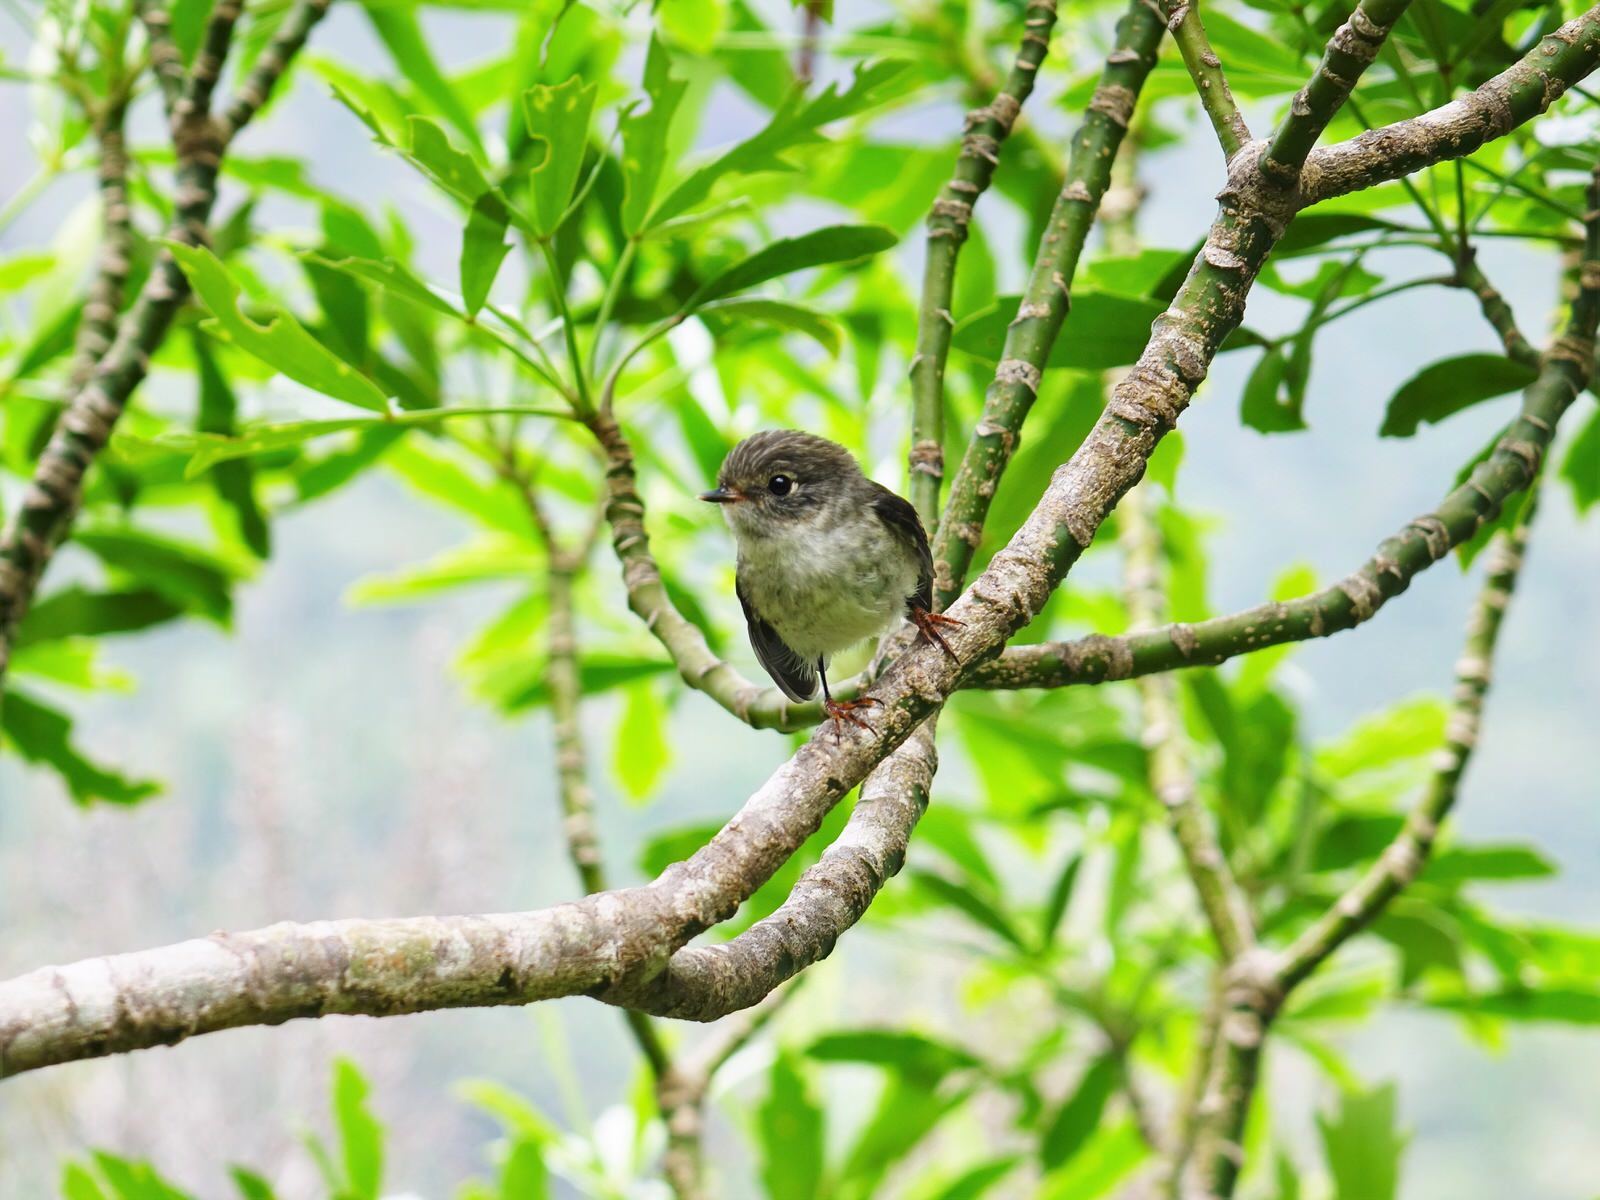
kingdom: Animalia
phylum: Chordata
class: Aves
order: Passeriformes
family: Petroicidae
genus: Petroica
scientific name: Petroica macrocephala
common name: Tomtit
